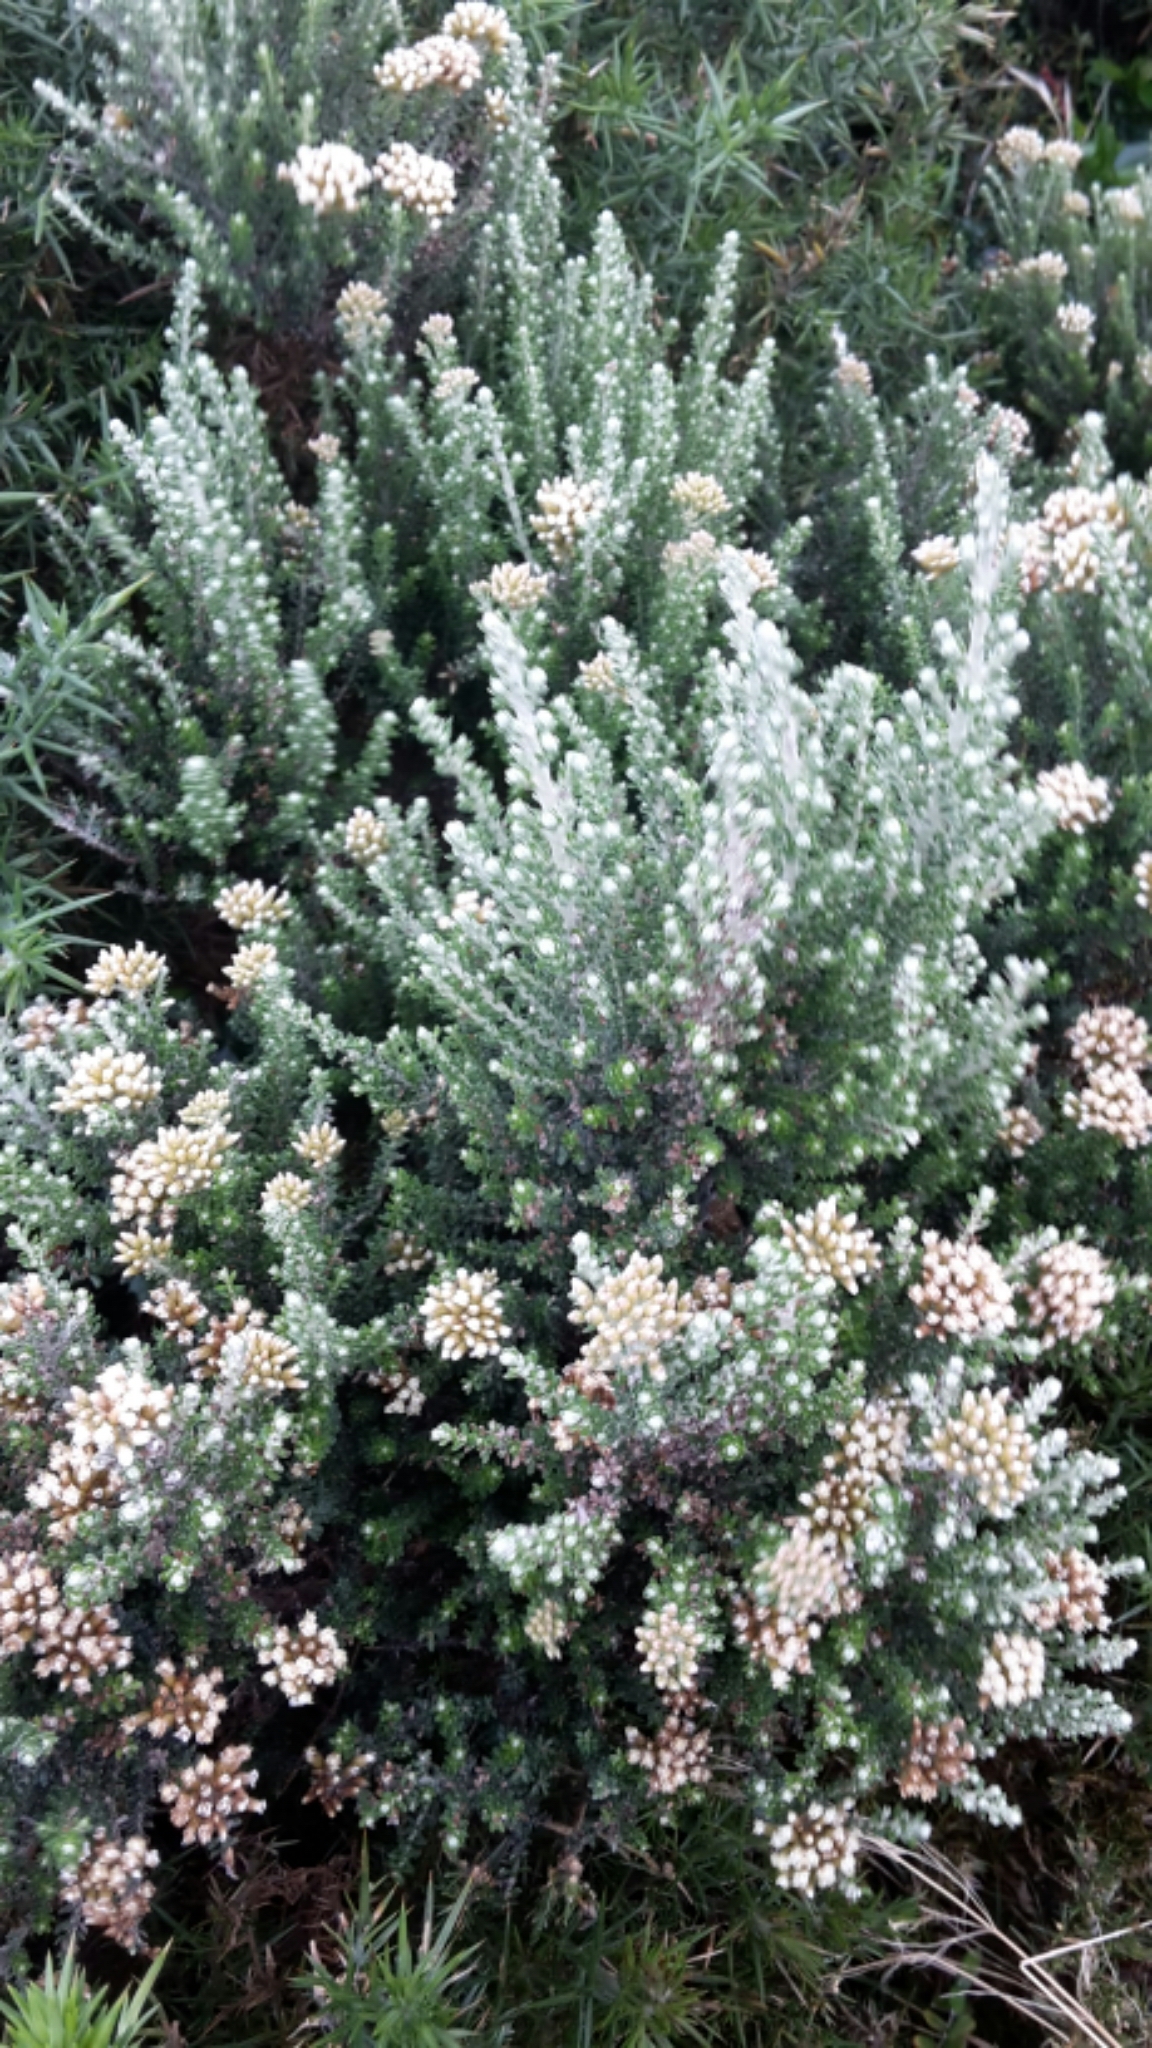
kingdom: Plantae
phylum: Tracheophyta
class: Magnoliopsida
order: Asterales
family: Asteraceae
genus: Ozothamnus
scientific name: Ozothamnus leptophyllus
